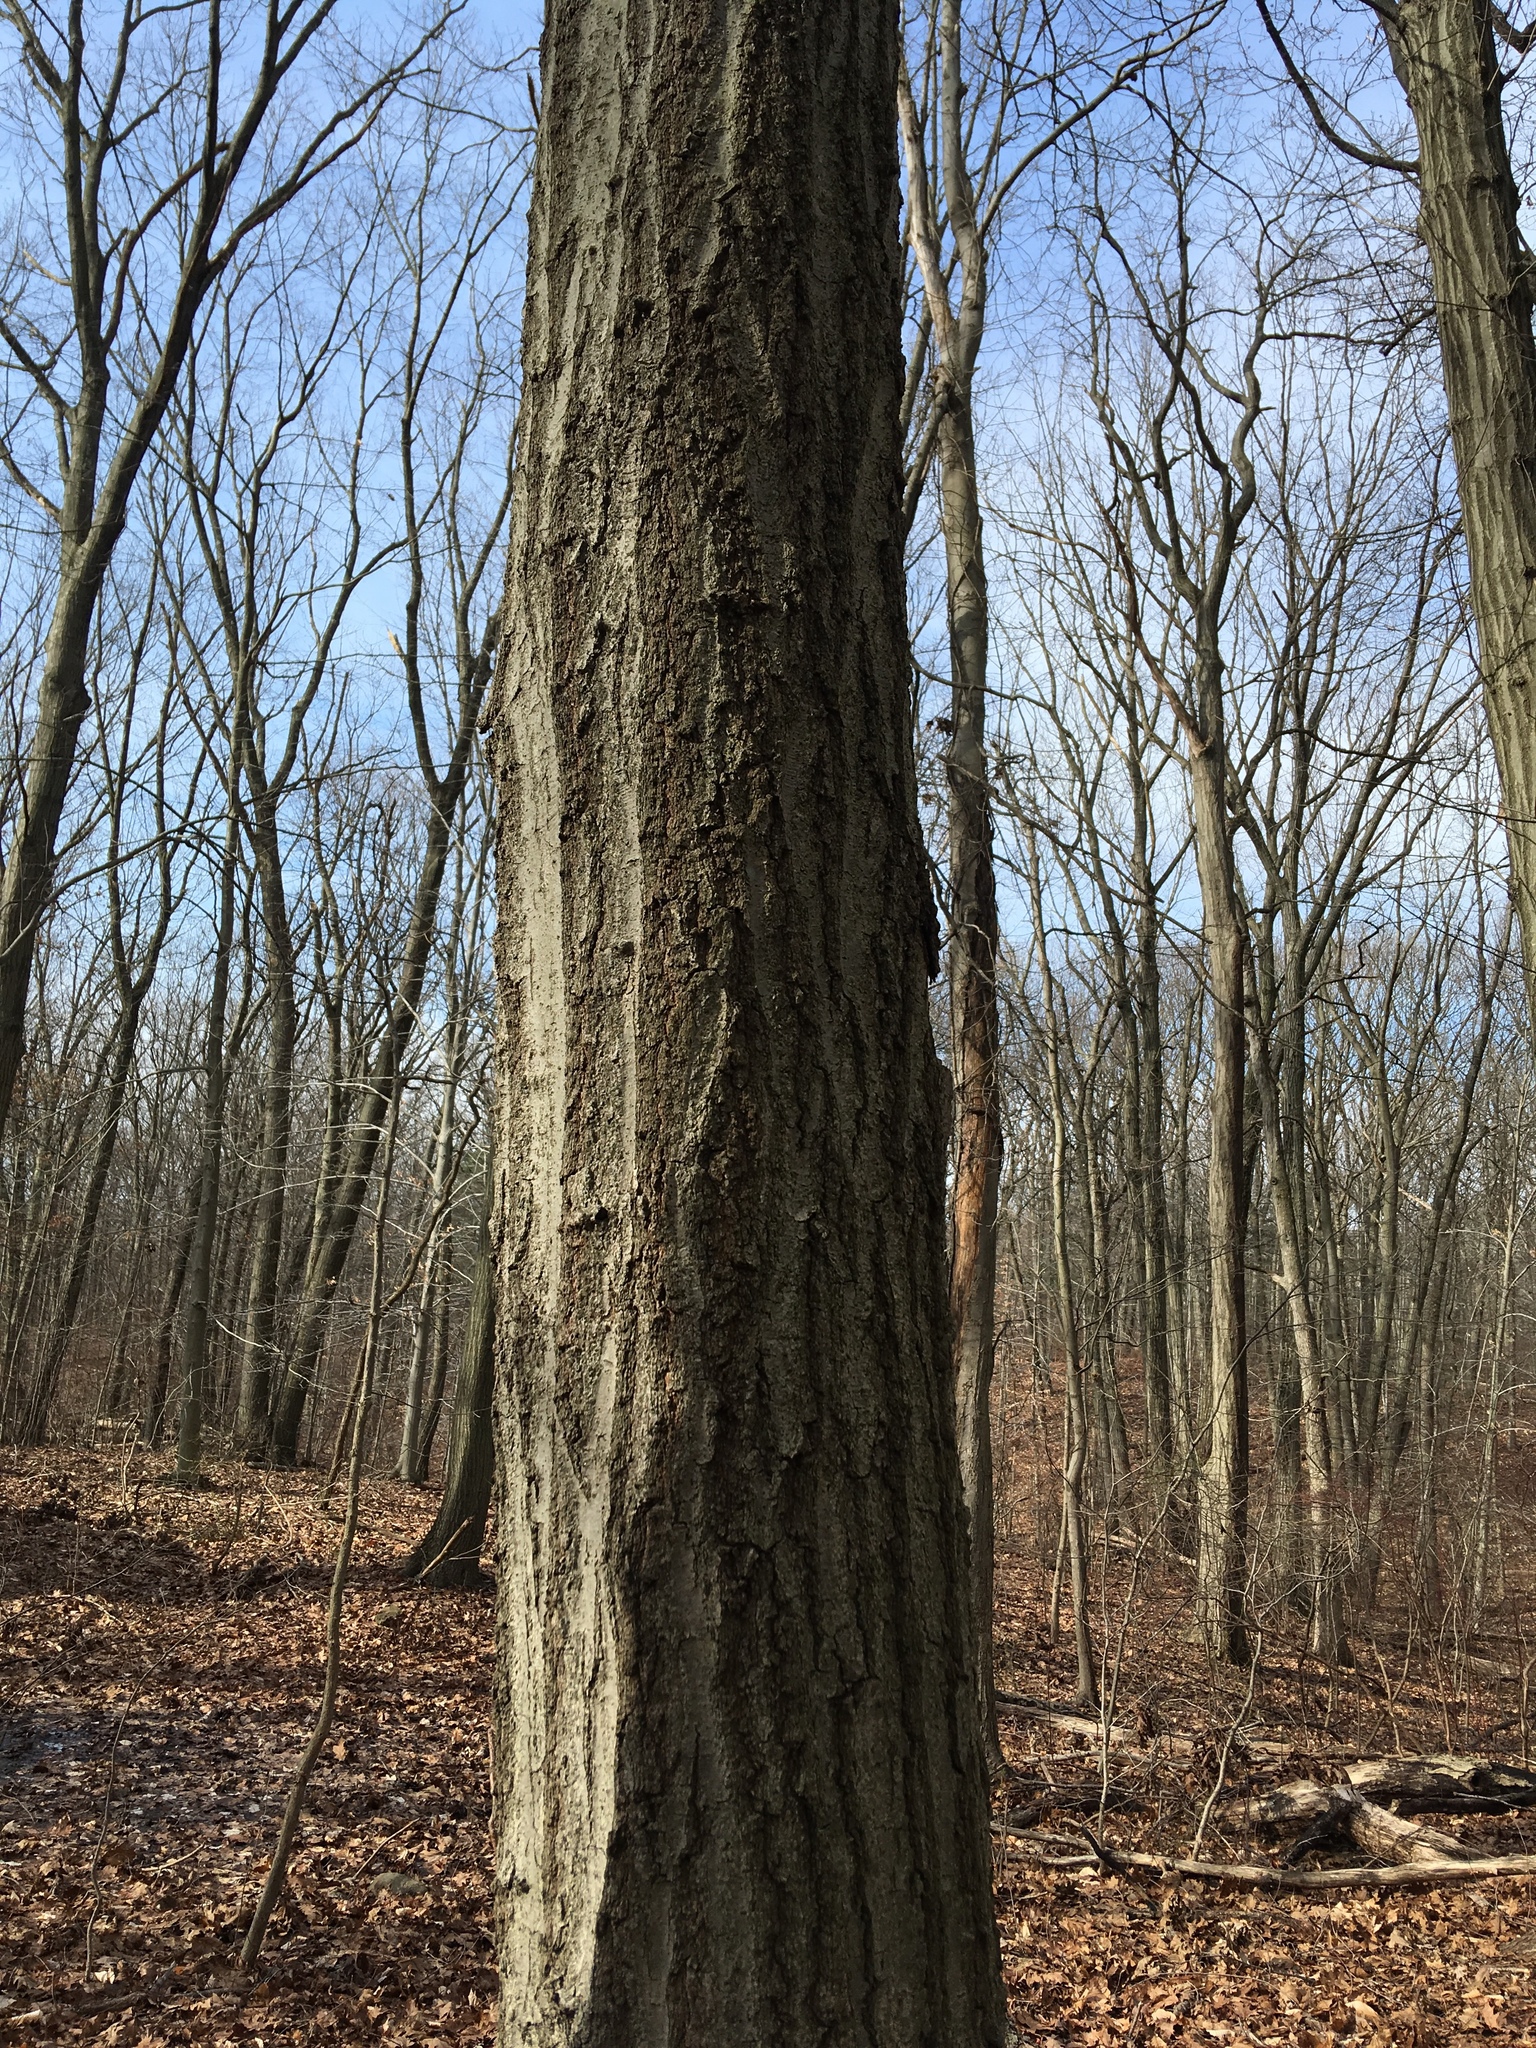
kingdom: Plantae
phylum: Tracheophyta
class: Magnoliopsida
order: Fagales
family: Fagaceae
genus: Quercus
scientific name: Quercus rubra
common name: Red oak
